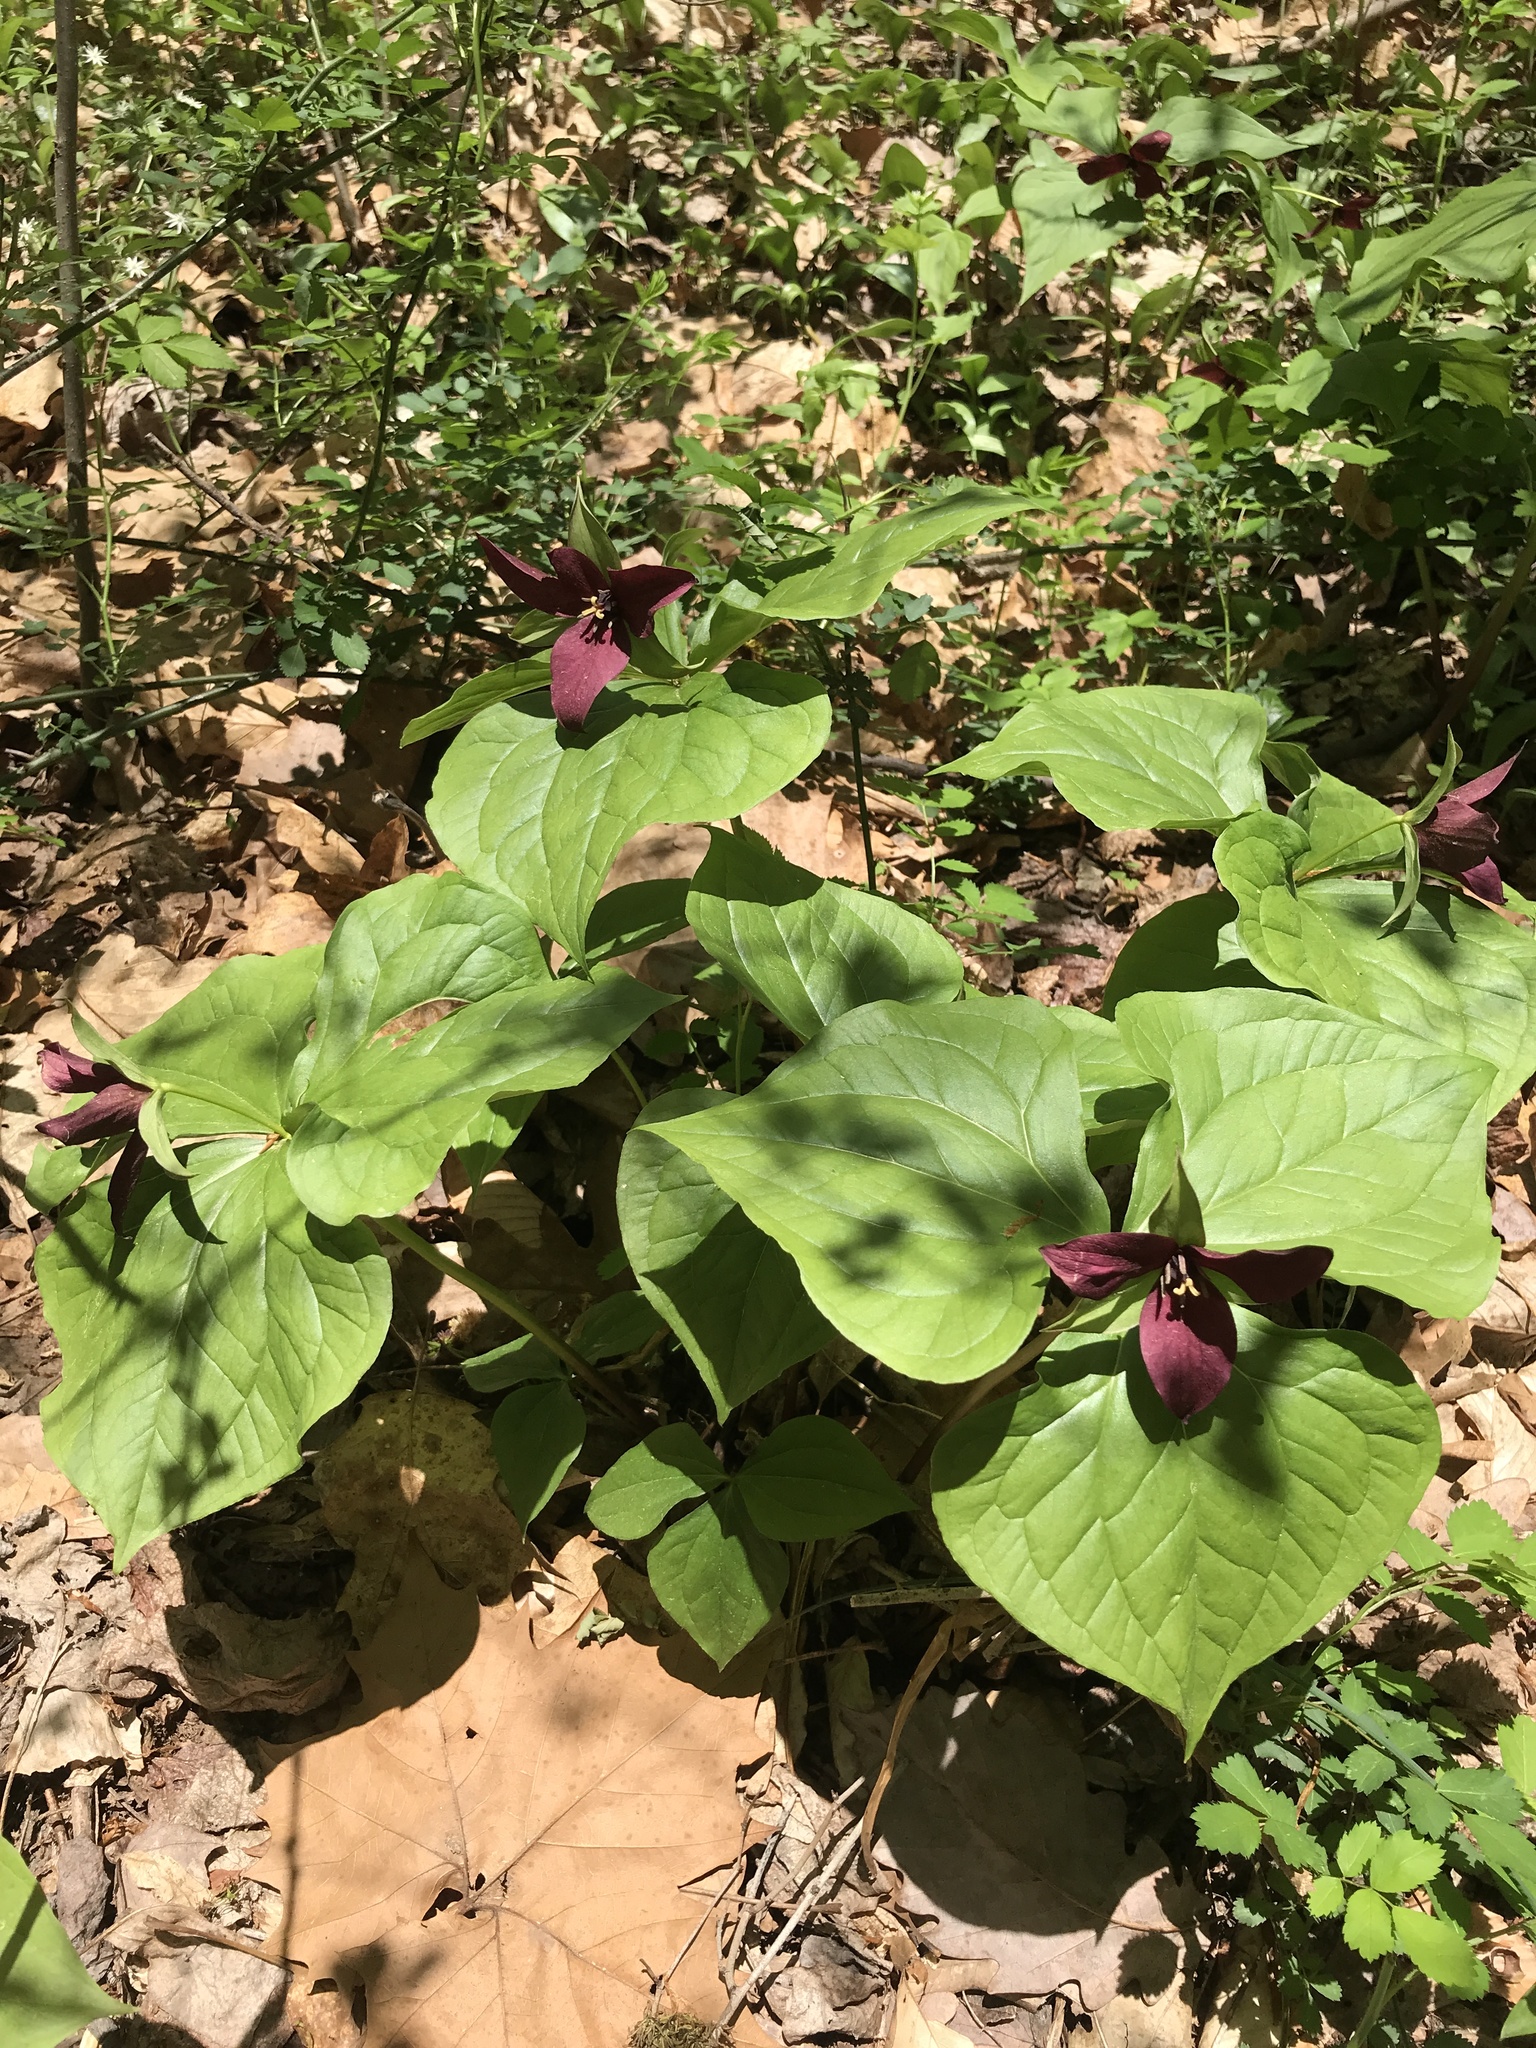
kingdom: Plantae
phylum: Tracheophyta
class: Liliopsida
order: Liliales
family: Melanthiaceae
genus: Trillium
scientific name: Trillium erectum
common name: Purple trillium
